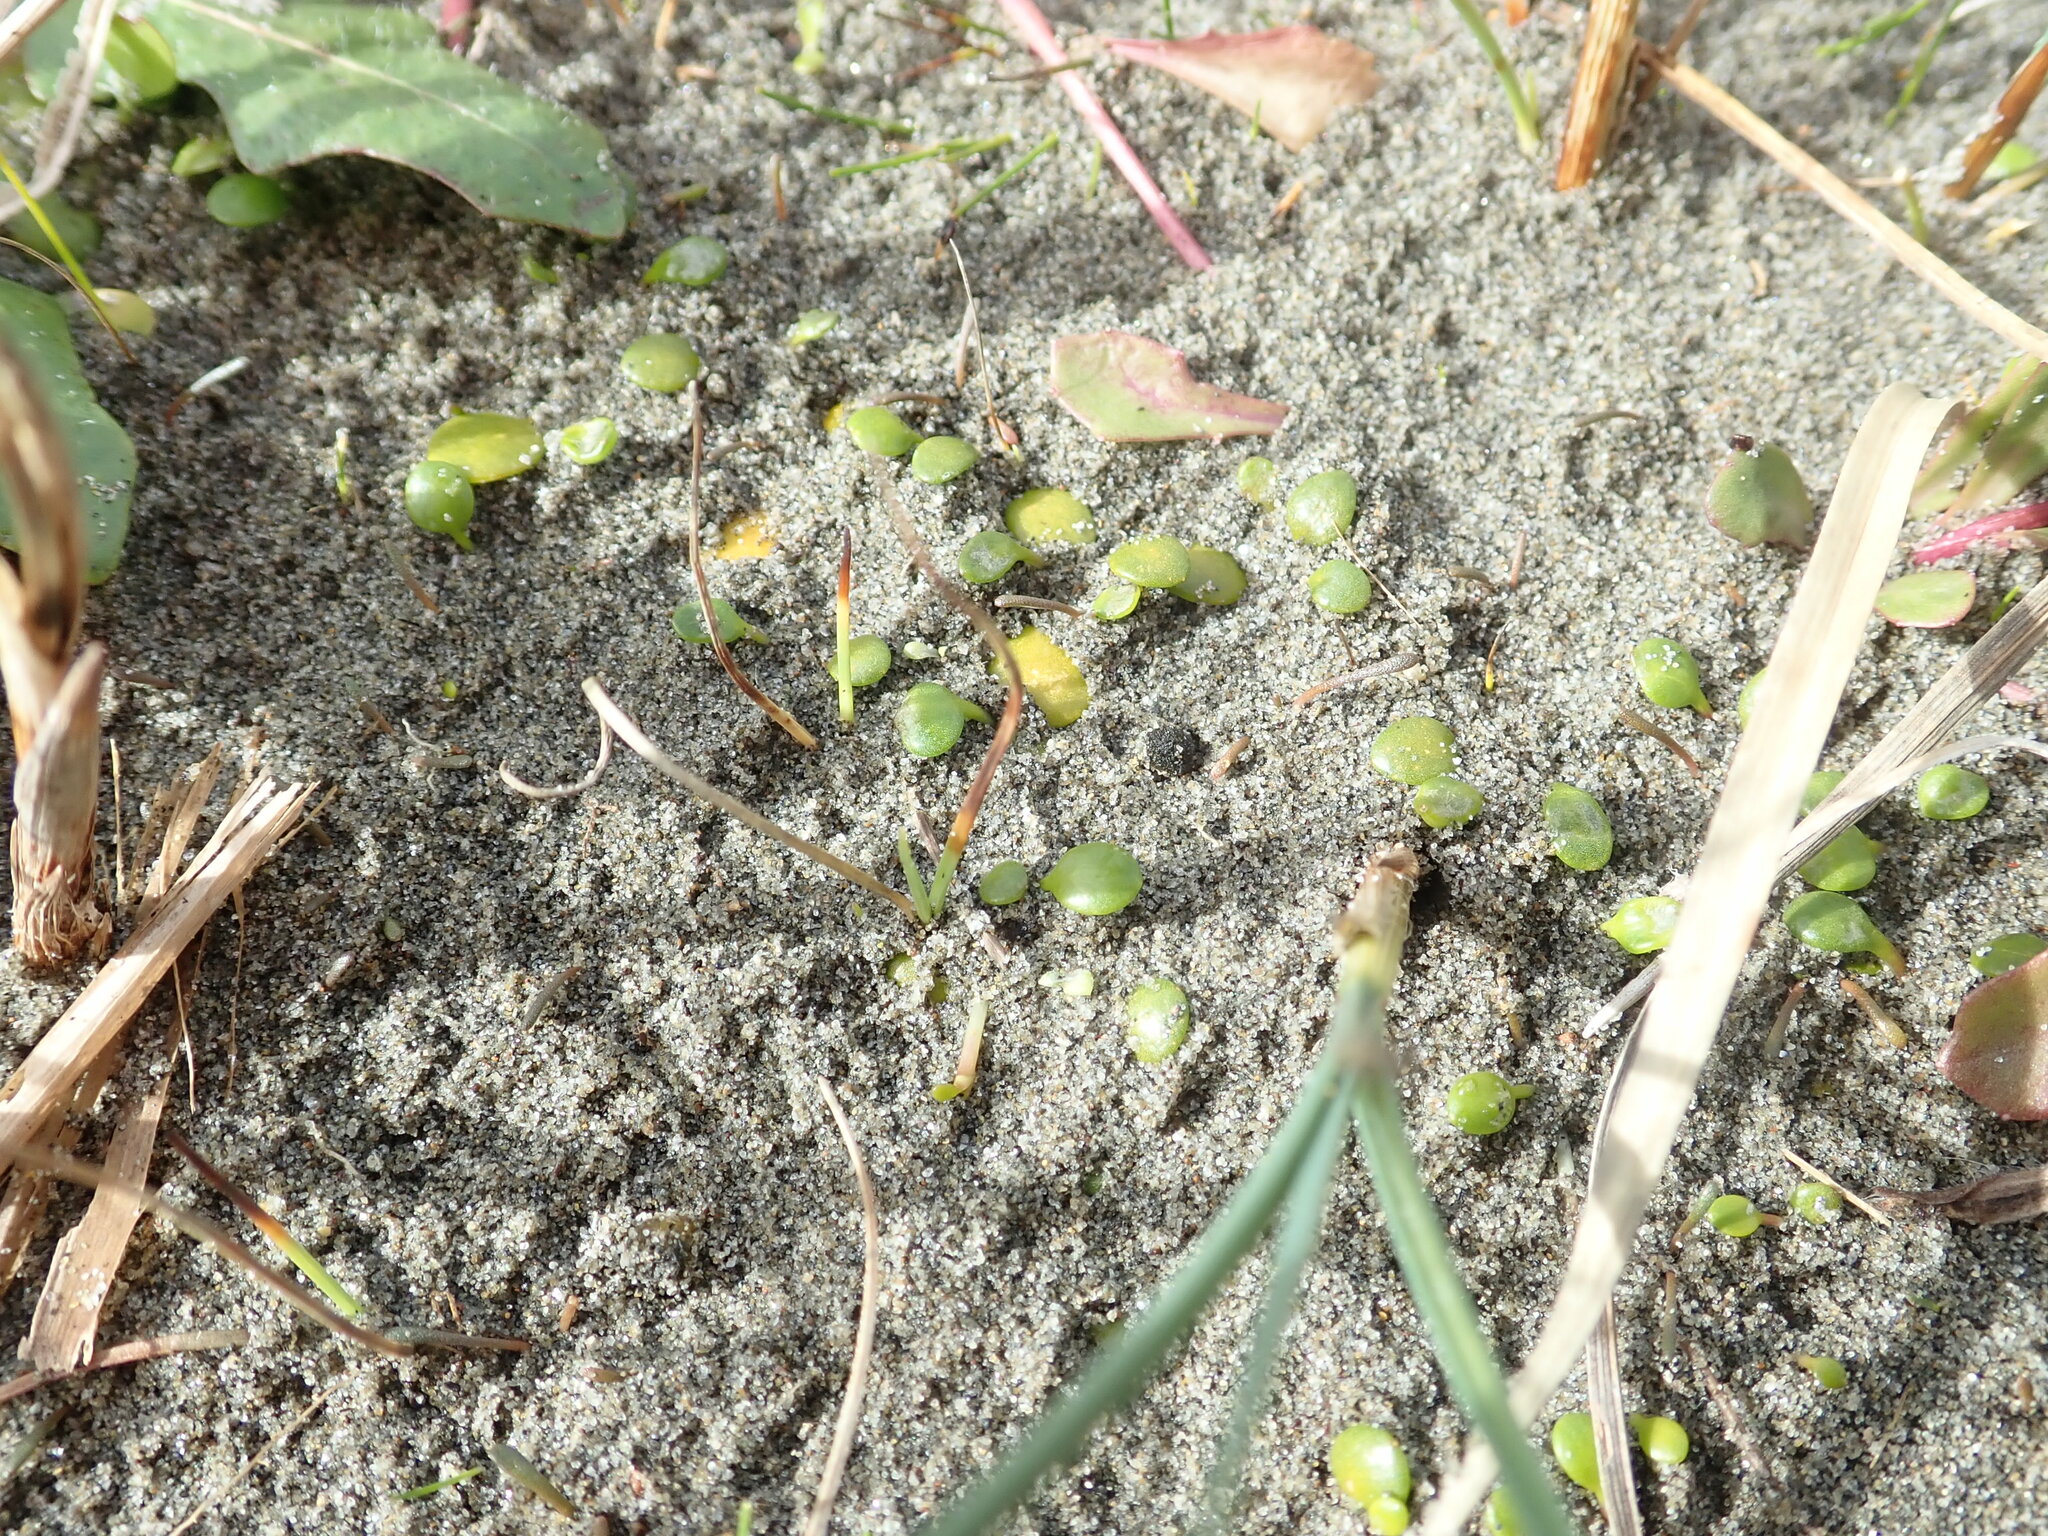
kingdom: Plantae
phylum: Tracheophyta
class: Magnoliopsida
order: Asterales
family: Goodeniaceae
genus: Goodenia
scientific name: Goodenia heenanii
